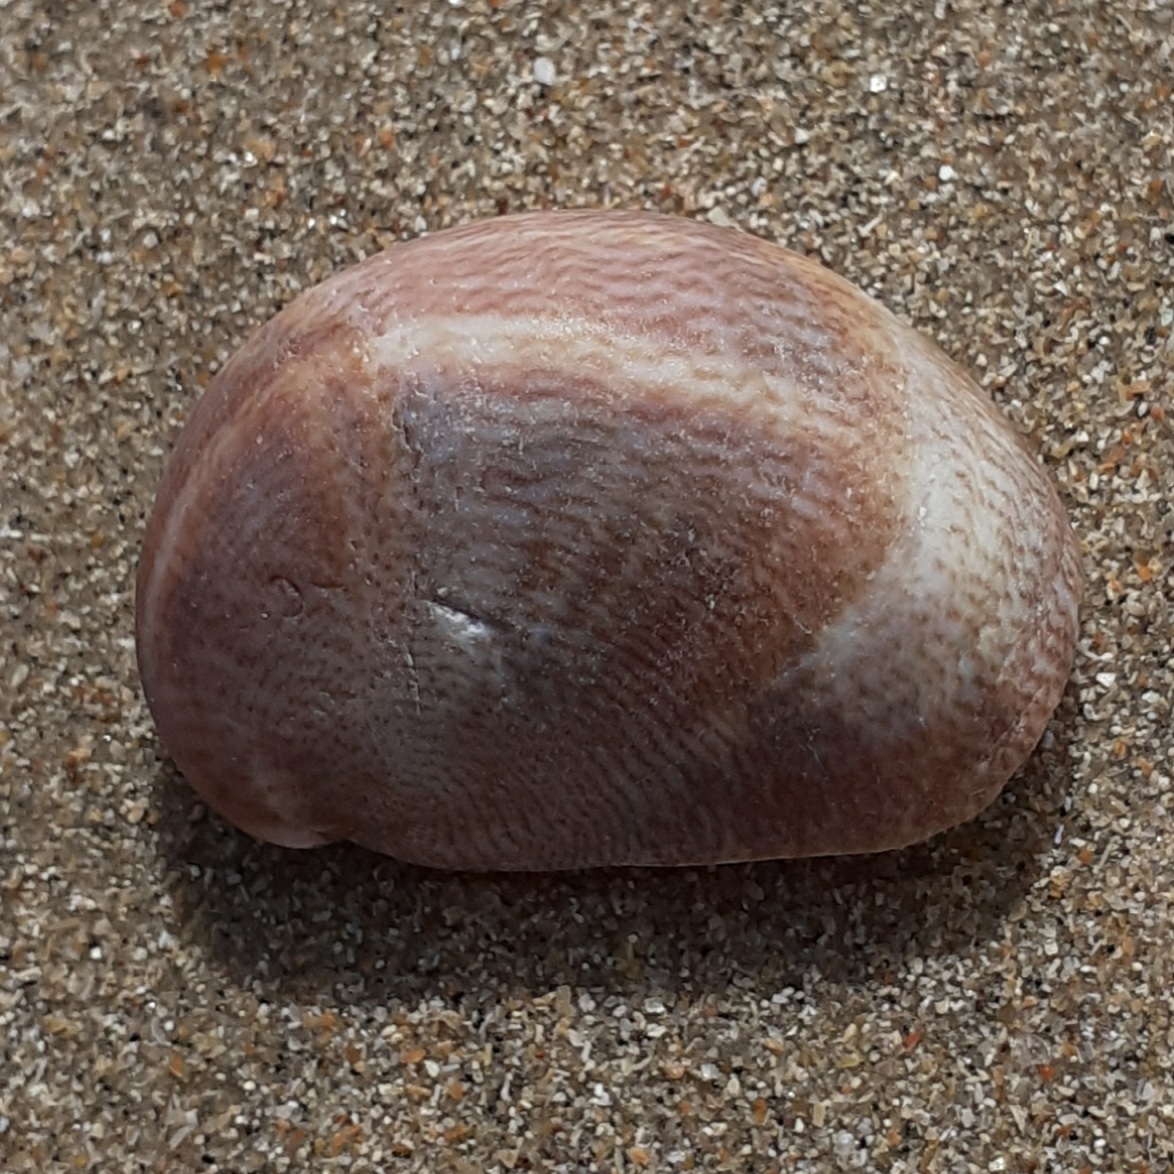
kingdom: Animalia
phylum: Mollusca
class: Gastropoda
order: Littorinimorpha
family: Calyptraeidae
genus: Crepidula
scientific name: Crepidula fornicata
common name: Slipper limpet
